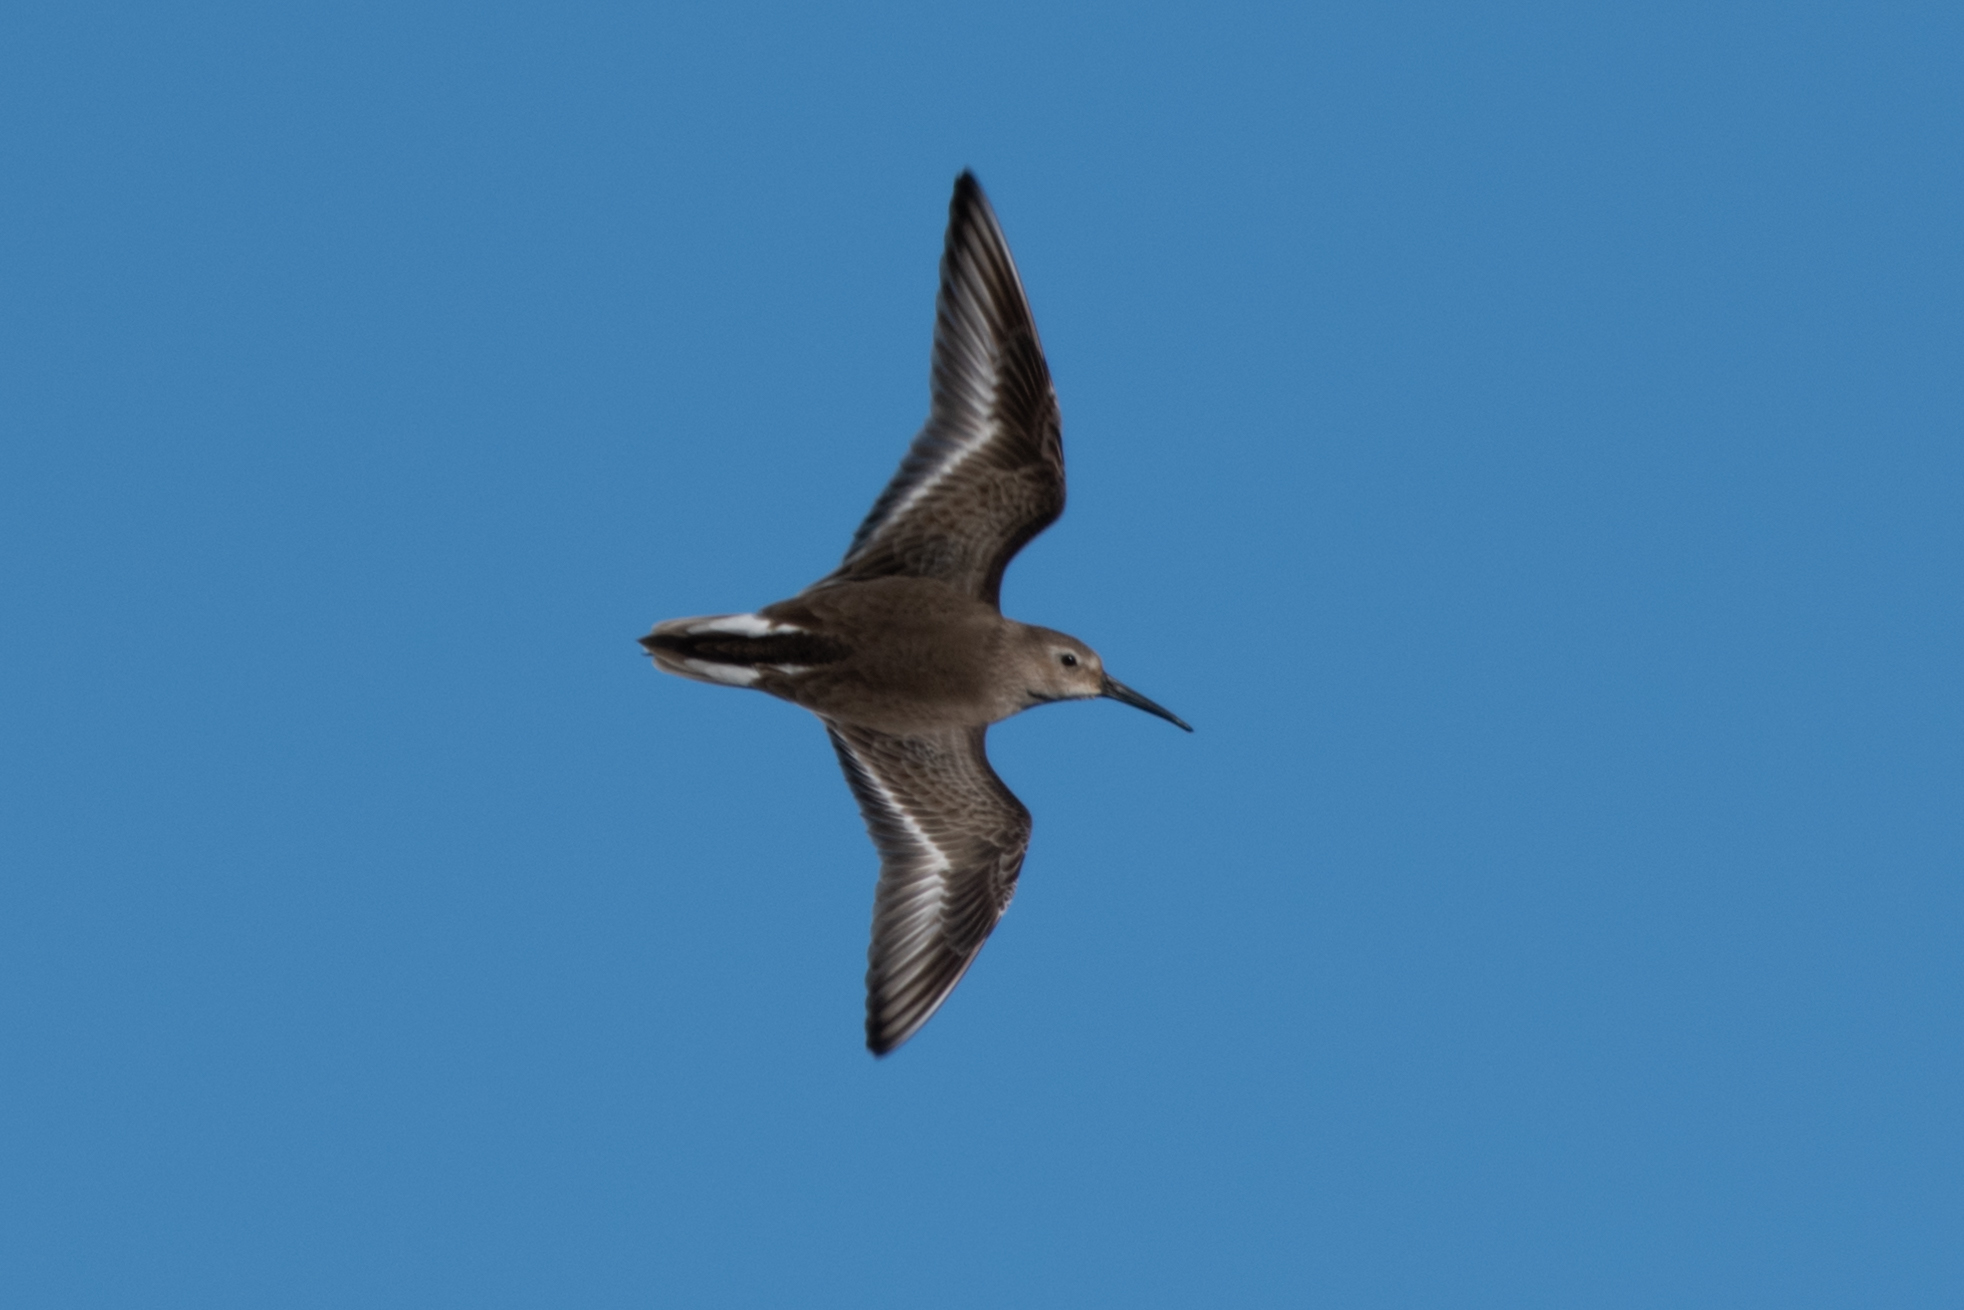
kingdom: Animalia
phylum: Chordata
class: Aves
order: Charadriiformes
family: Scolopacidae
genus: Calidris
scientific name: Calidris alpina
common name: Dunlin
